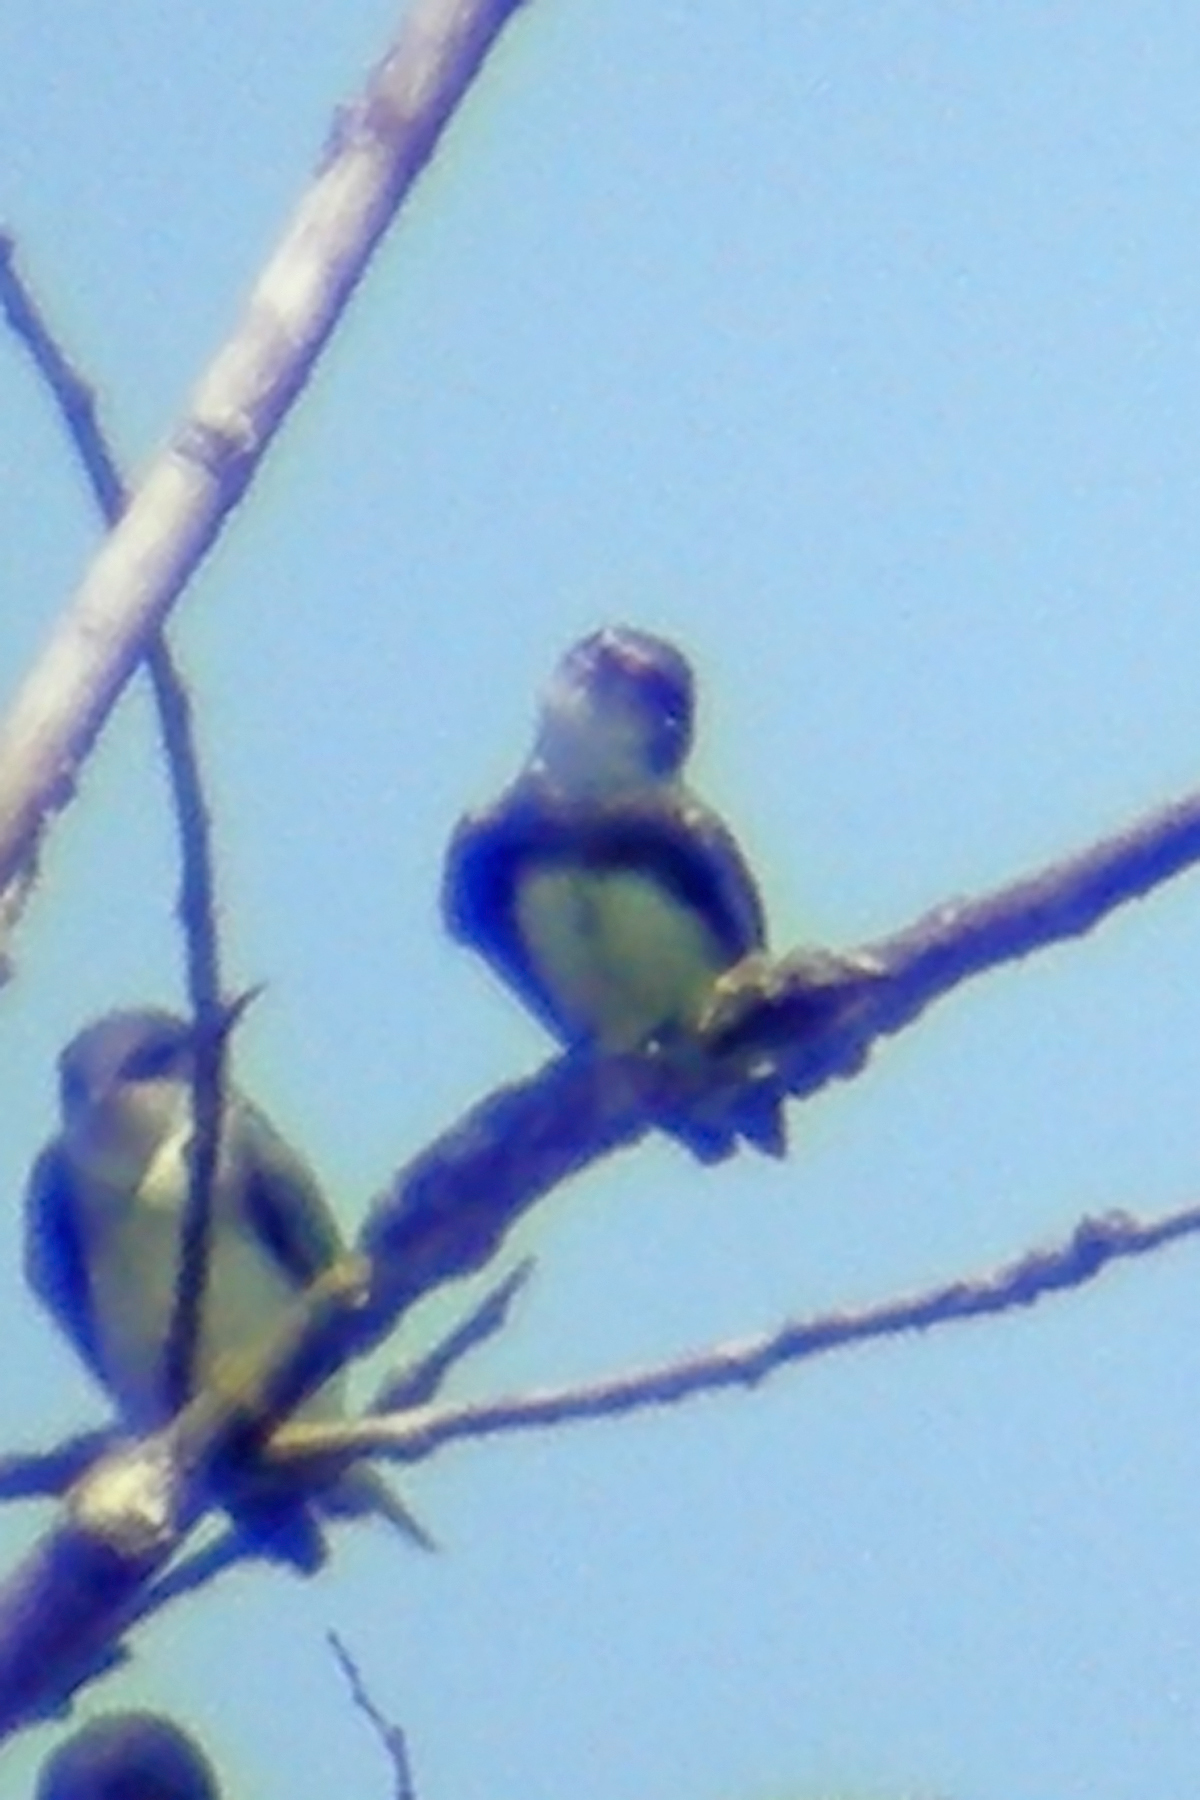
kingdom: Animalia
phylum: Chordata
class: Aves
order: Passeriformes
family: Hirundinidae
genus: Riparia
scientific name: Riparia riparia
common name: Sand martin
